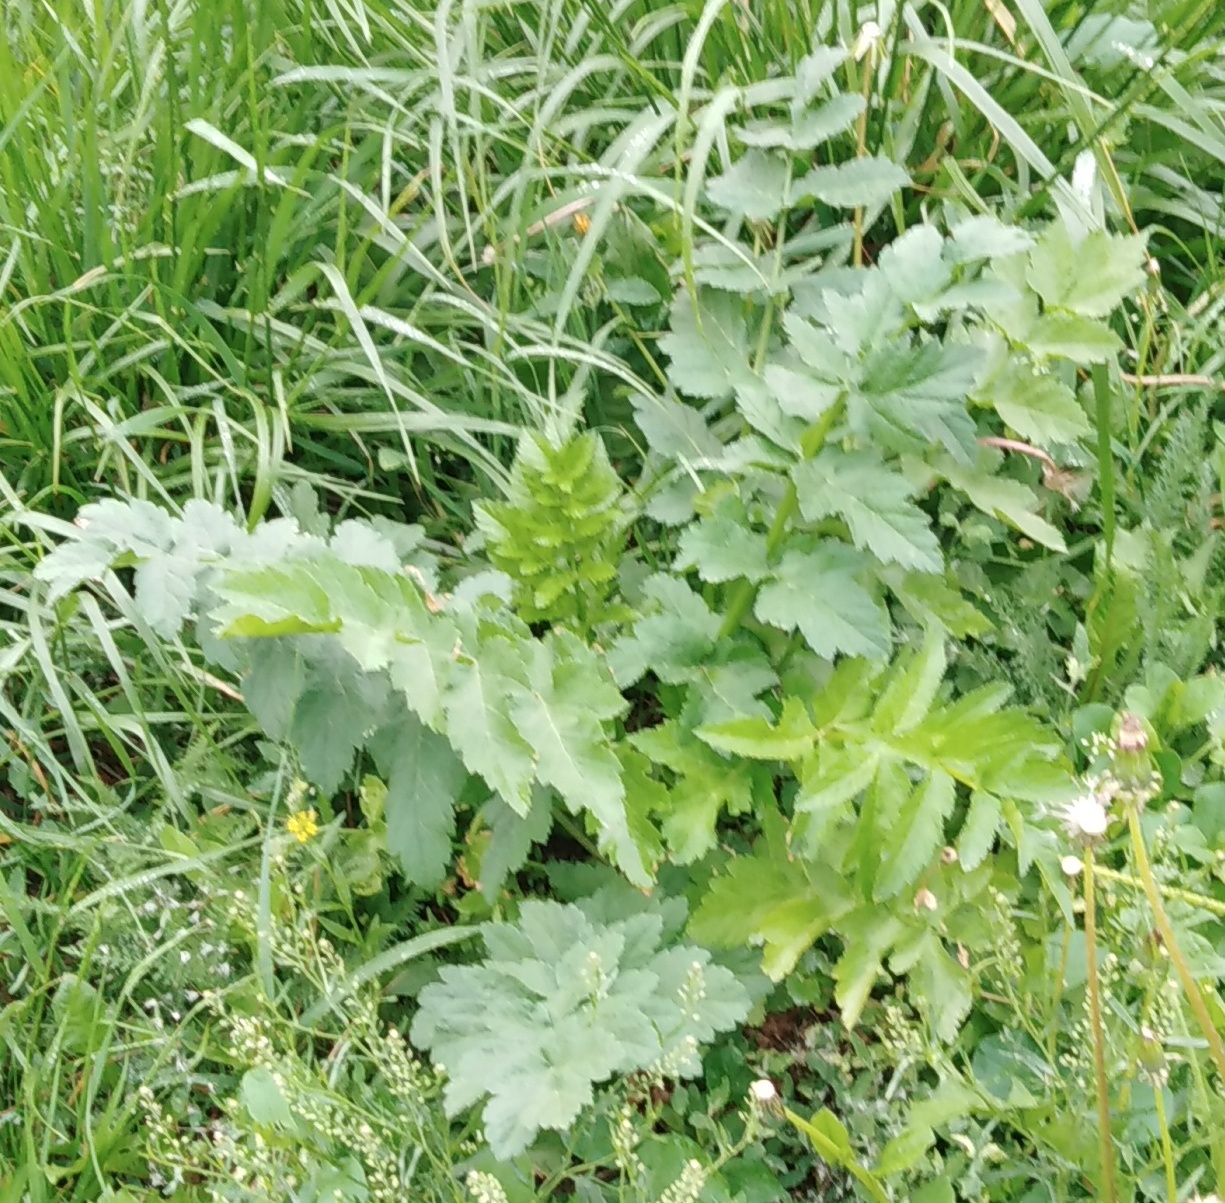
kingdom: Plantae
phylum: Tracheophyta
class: Magnoliopsida
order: Apiales
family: Apiaceae
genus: Pastinaca
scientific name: Pastinaca sativa
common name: Wild parsnip
